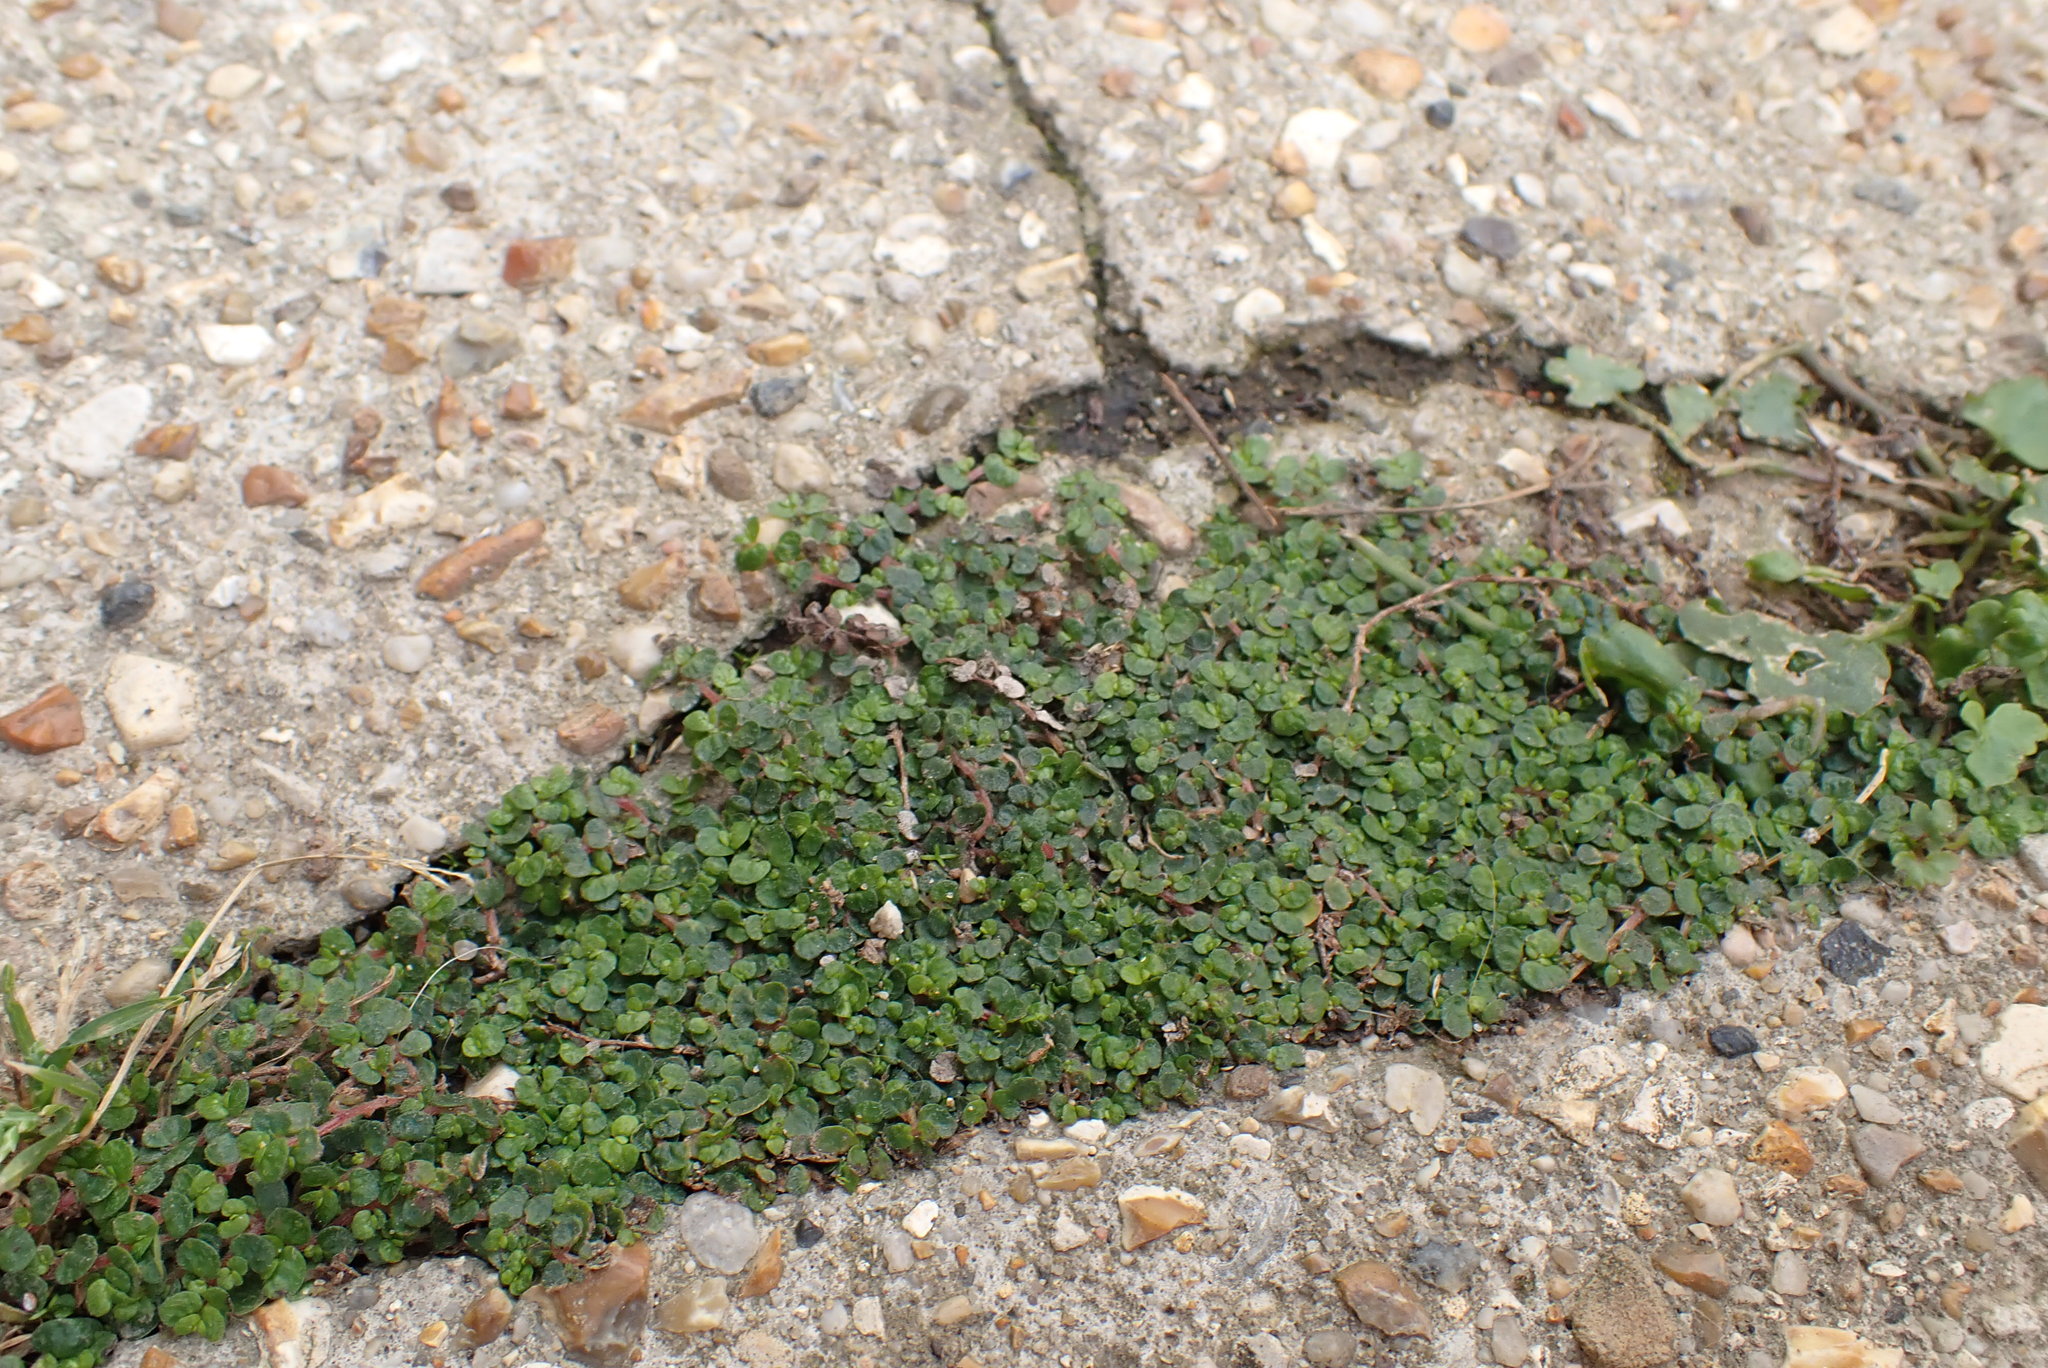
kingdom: Plantae
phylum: Tracheophyta
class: Magnoliopsida
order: Rosales
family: Urticaceae
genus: Soleirolia
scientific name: Soleirolia soleirolii
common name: Mind-your-own-business
